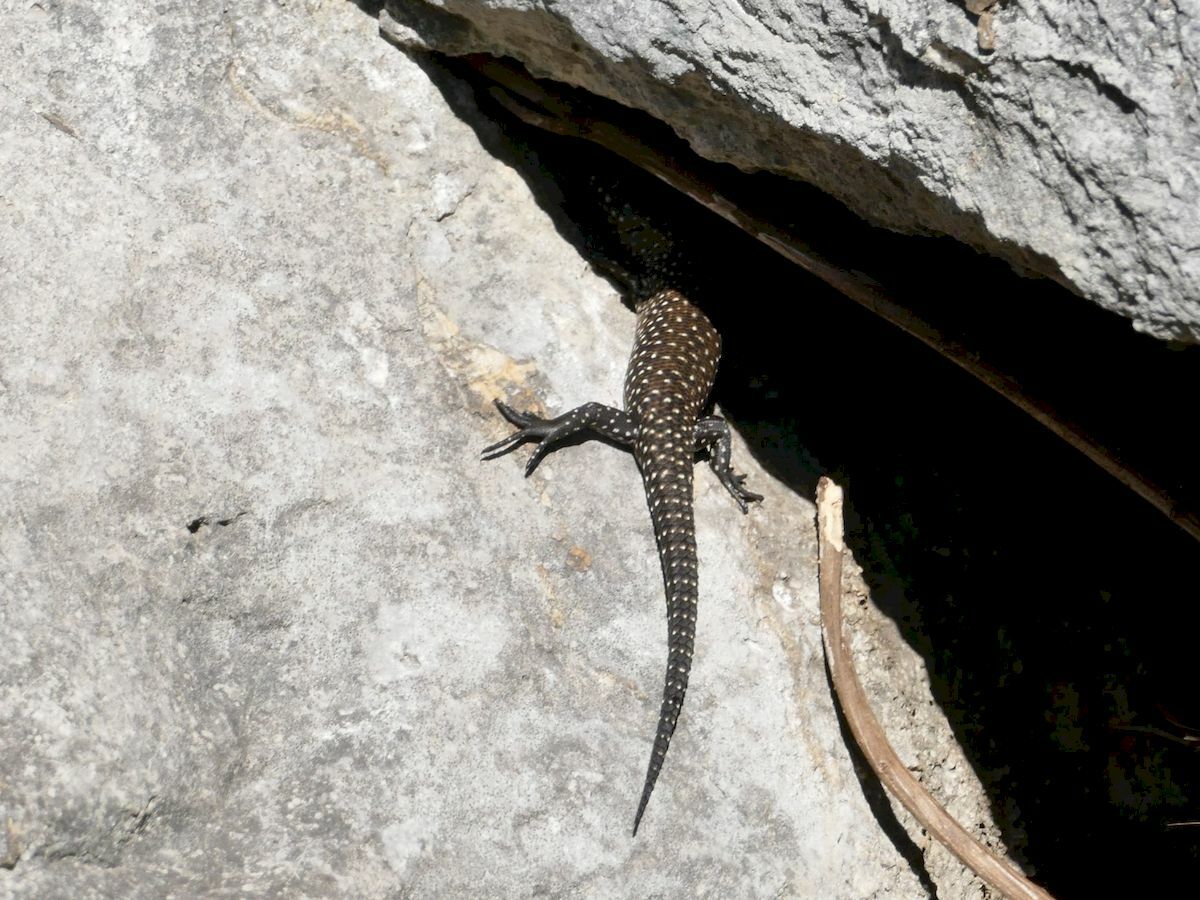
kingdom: Animalia
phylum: Chordata
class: Squamata
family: Scincidae
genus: Egernia
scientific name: Egernia cunninghami
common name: Cunningham's skink
